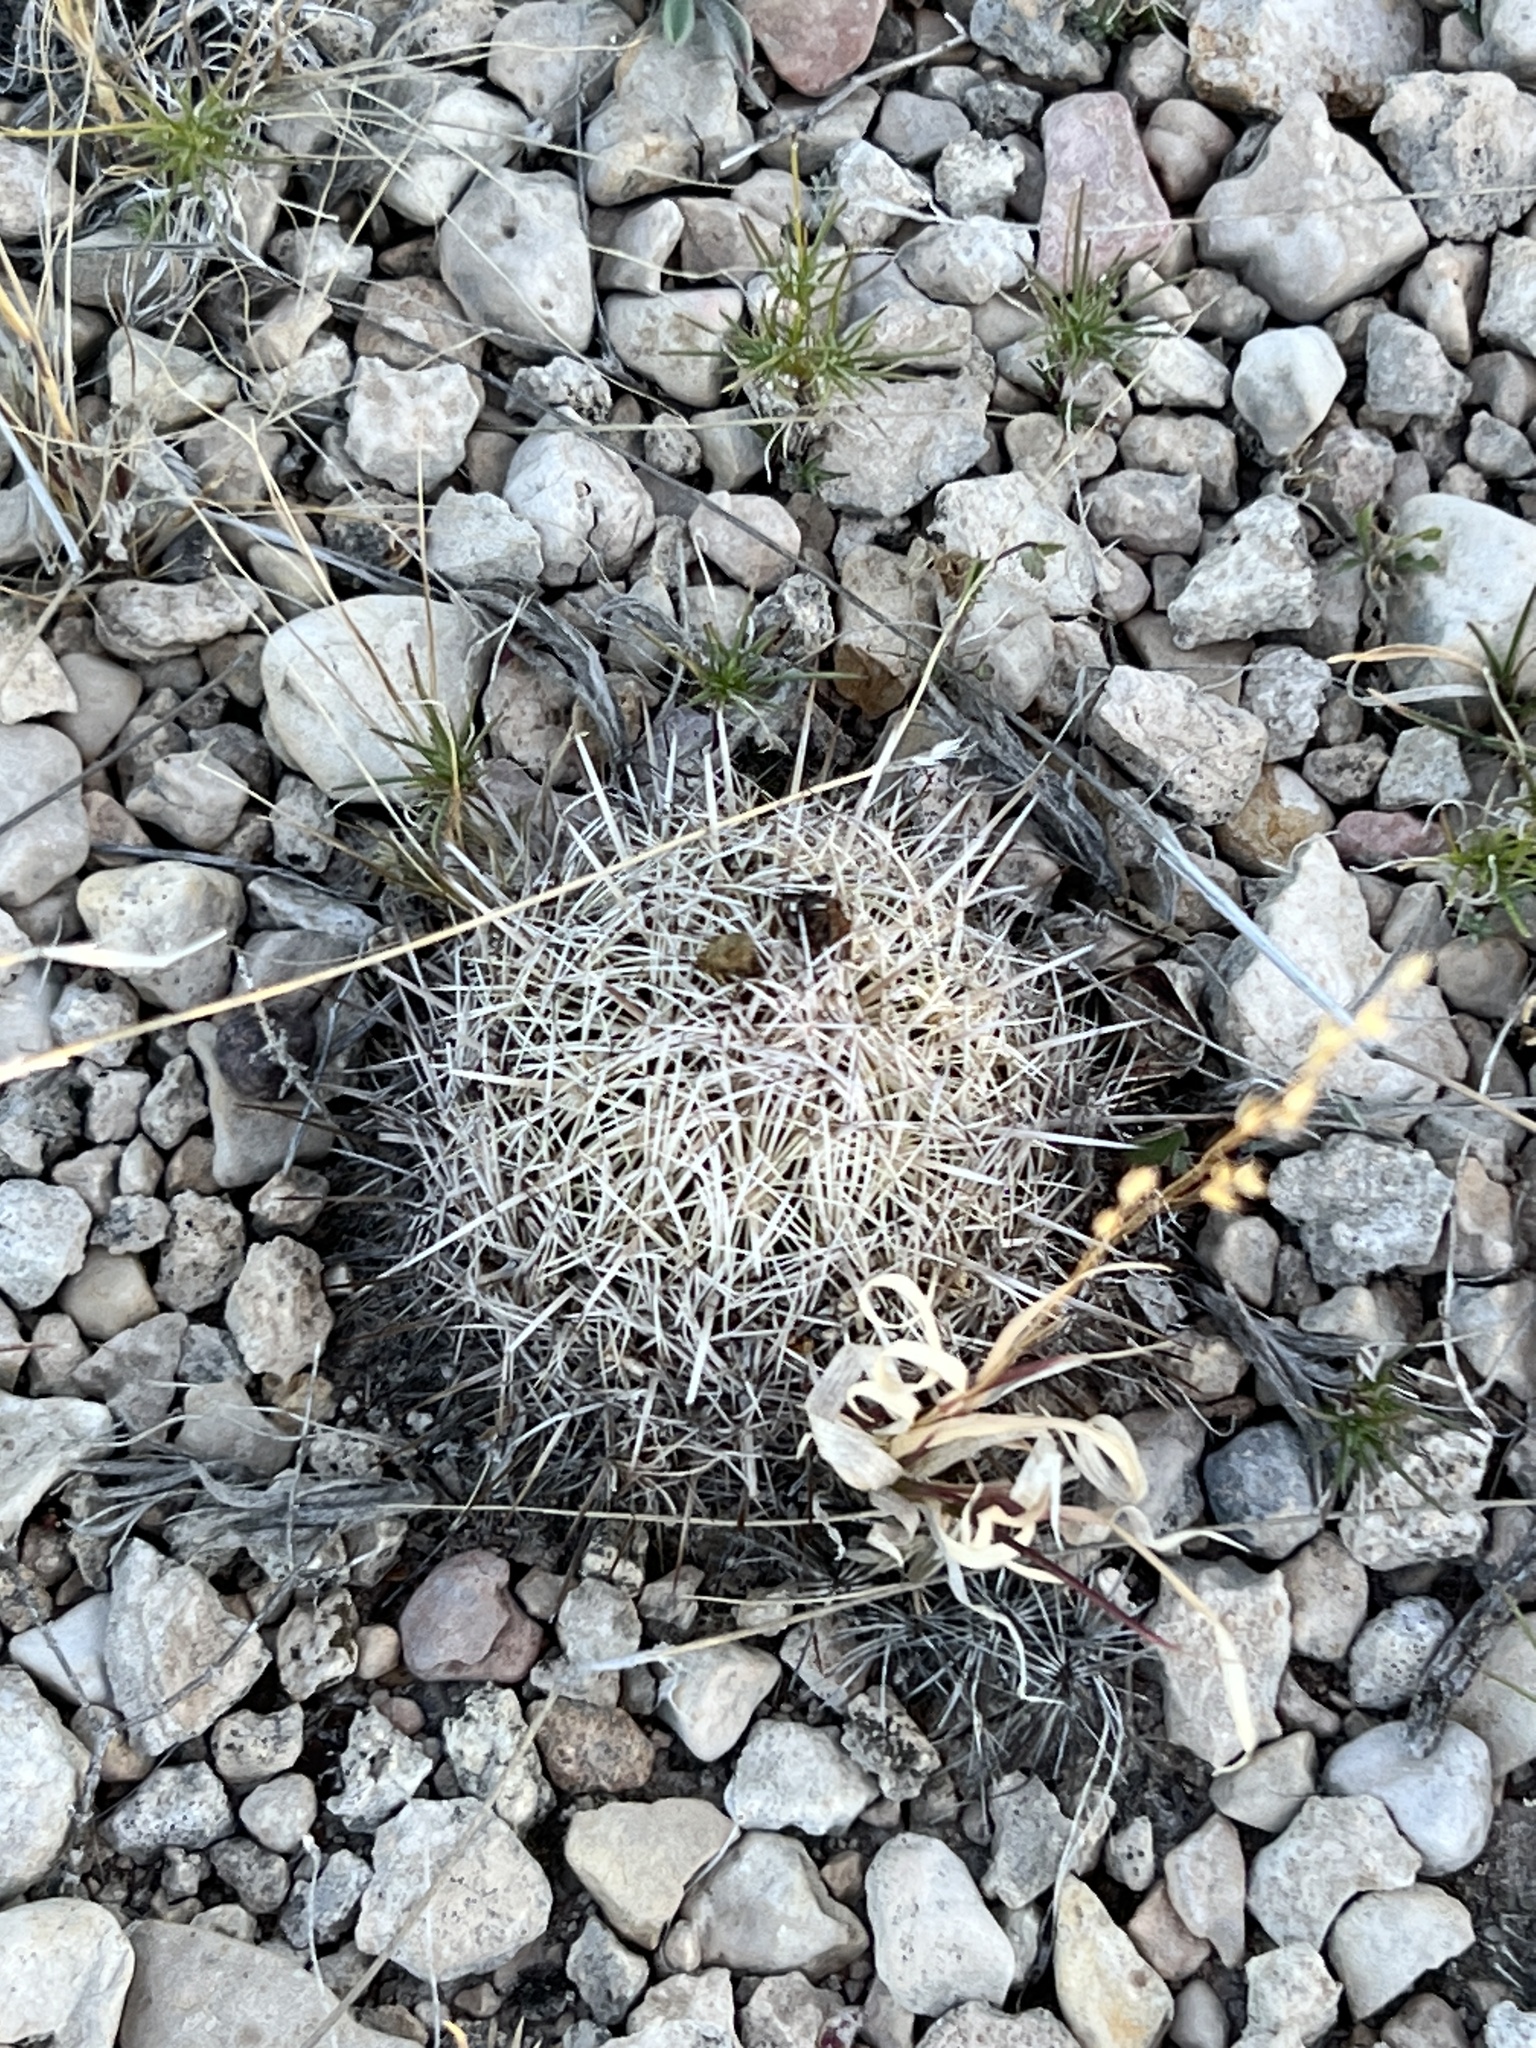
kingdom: Plantae
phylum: Tracheophyta
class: Magnoliopsida
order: Caryophyllales
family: Cactaceae
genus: Coryphantha
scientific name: Coryphantha echinus
